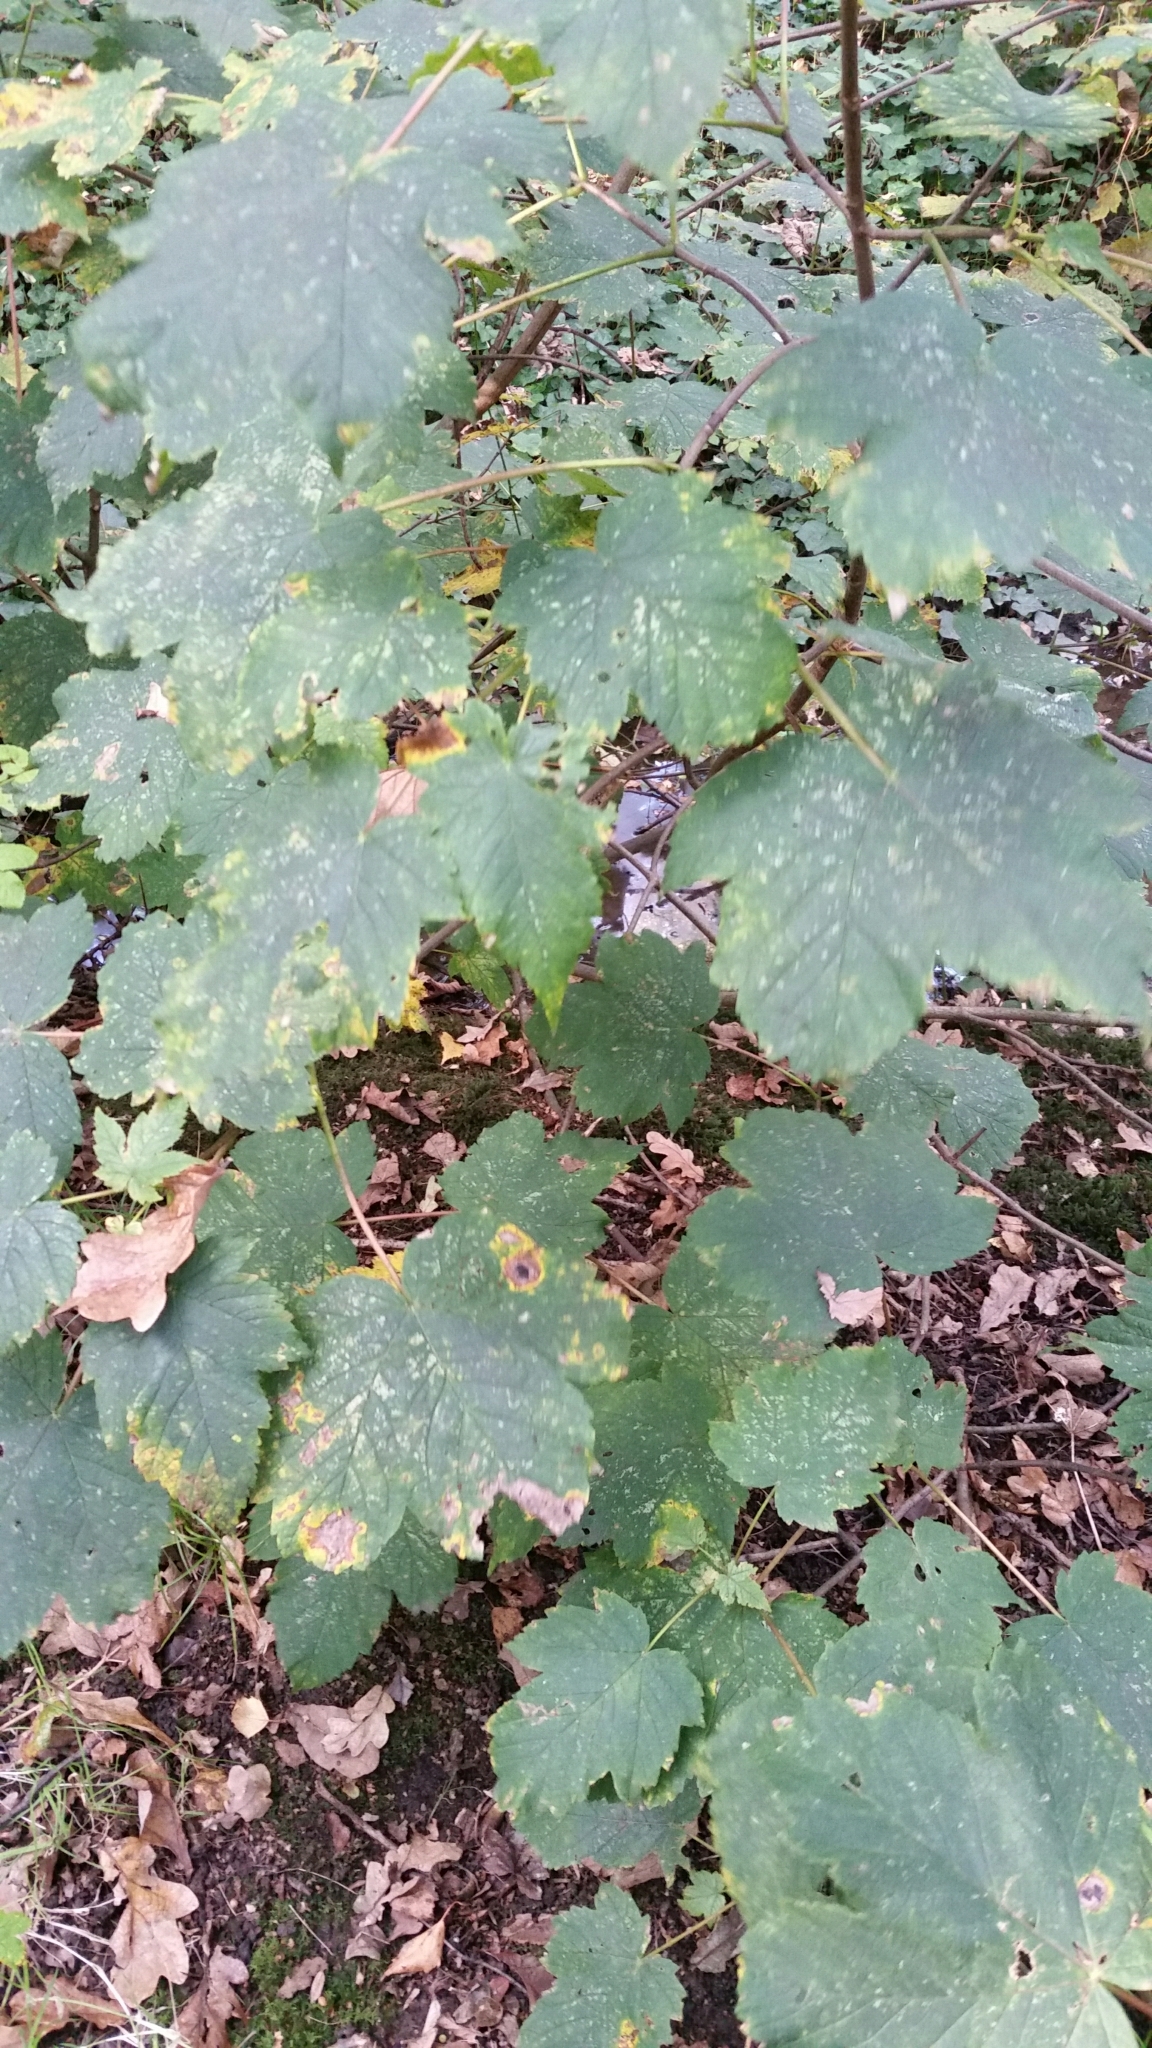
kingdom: Plantae
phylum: Tracheophyta
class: Magnoliopsida
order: Sapindales
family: Sapindaceae
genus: Acer
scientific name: Acer pseudoplatanus
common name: Sycamore
